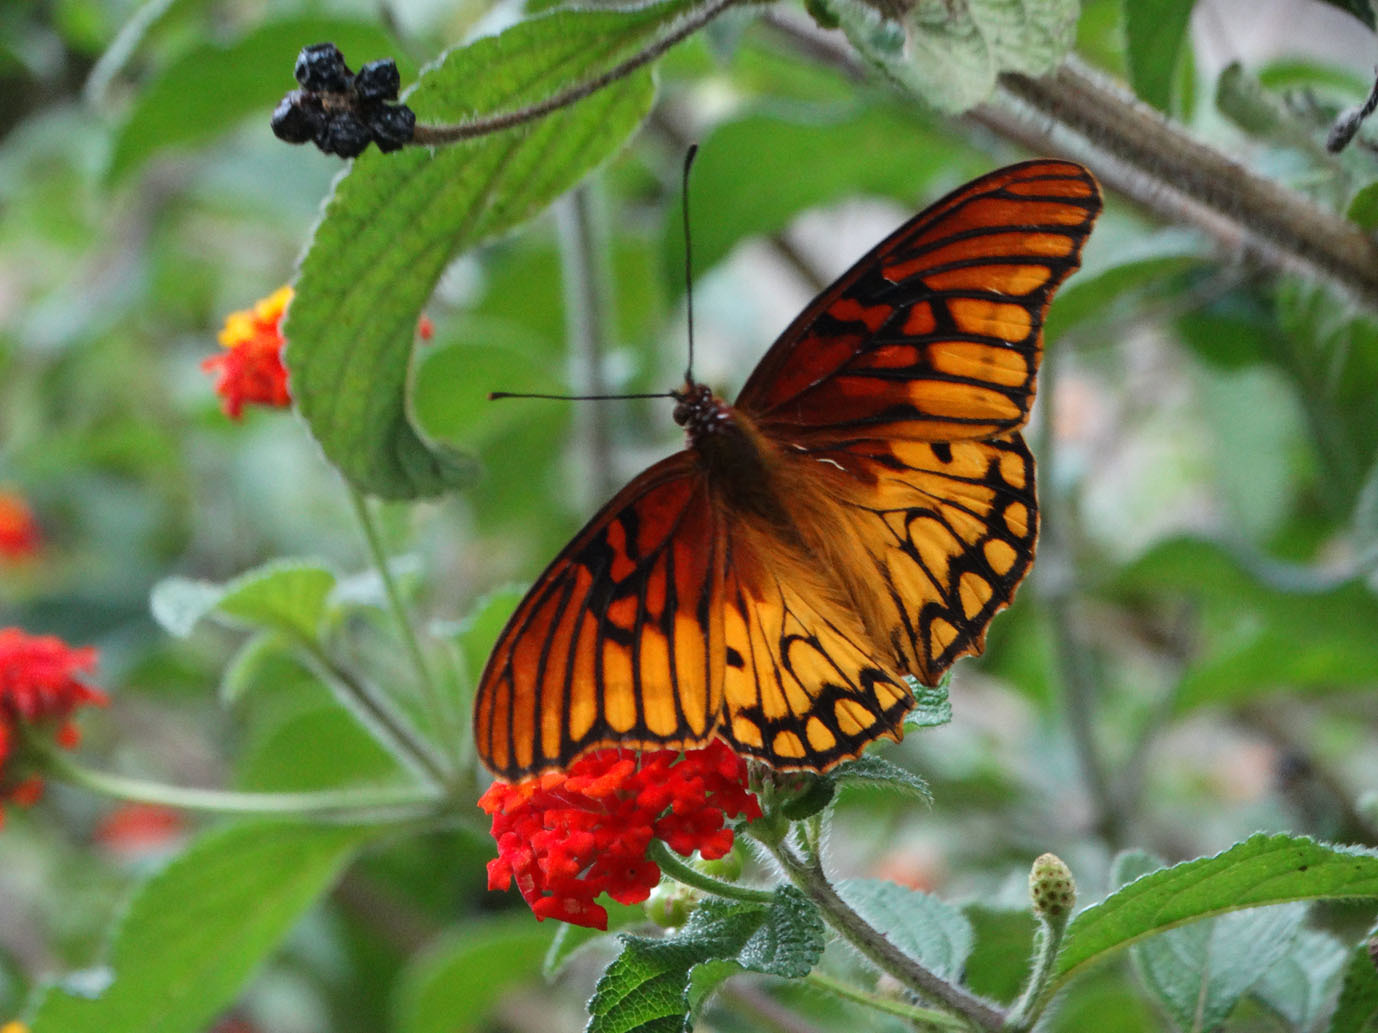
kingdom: Animalia
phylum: Arthropoda
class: Insecta
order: Lepidoptera
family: Nymphalidae
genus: Dione
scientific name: Dione moneta
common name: Mexican silverspot
